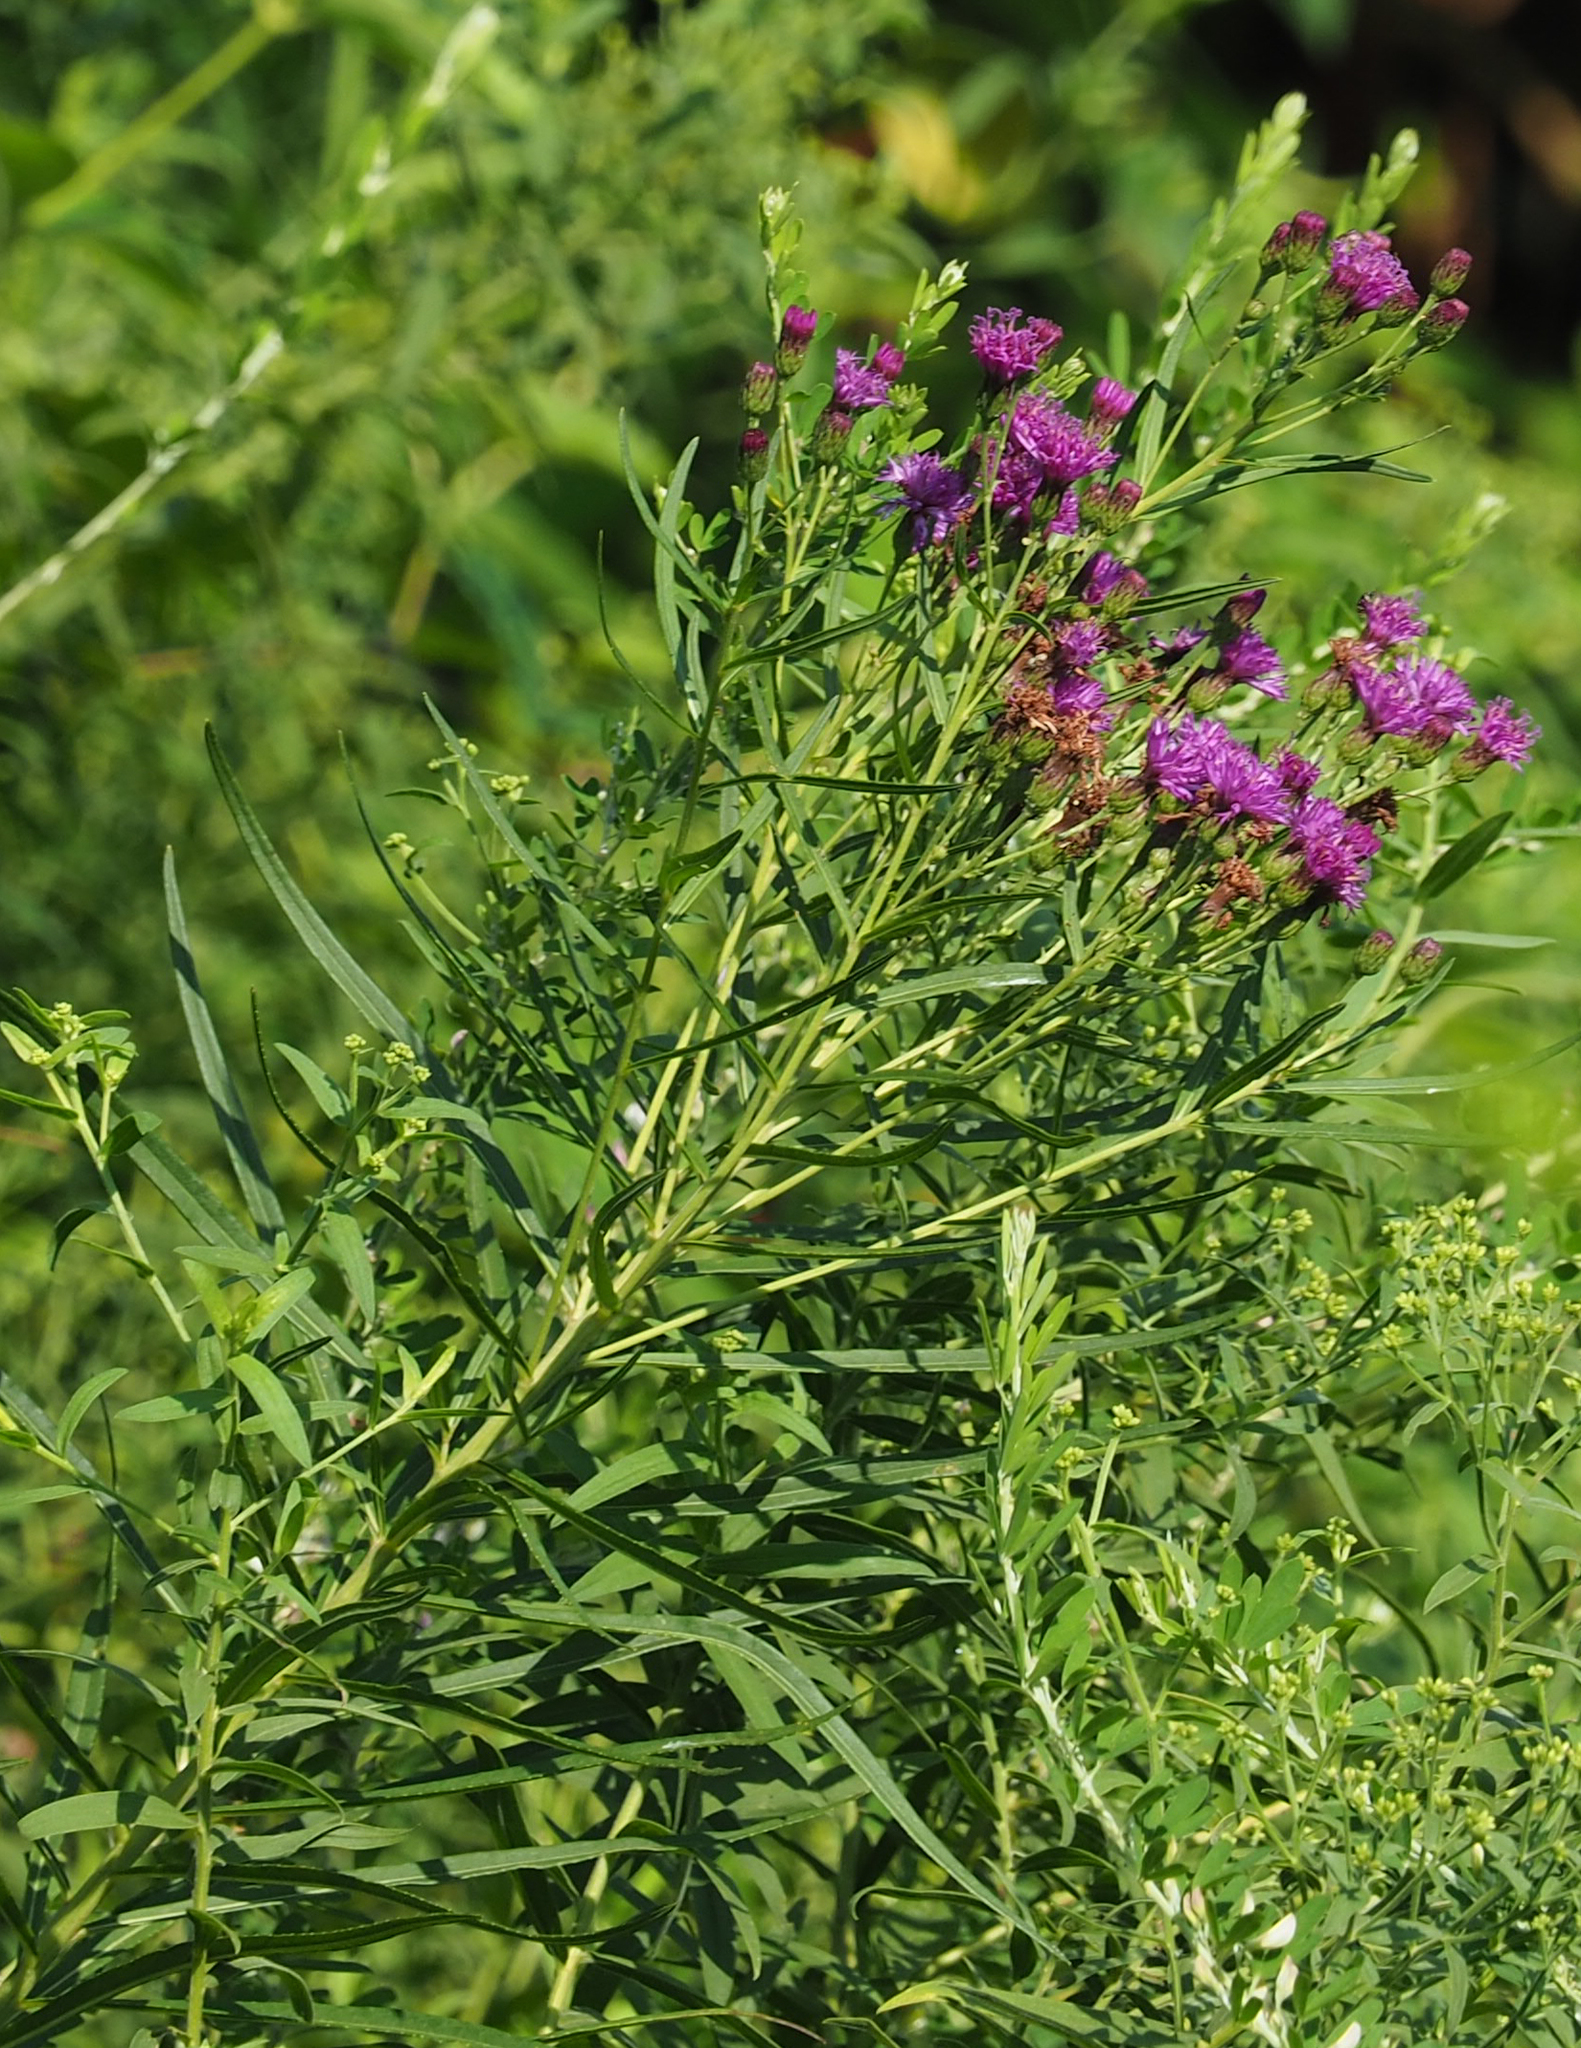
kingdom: Plantae
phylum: Tracheophyta
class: Magnoliopsida
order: Asterales
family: Asteraceae
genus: Vernonia
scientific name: Vernonia noveboracensis
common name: New york ironweed
